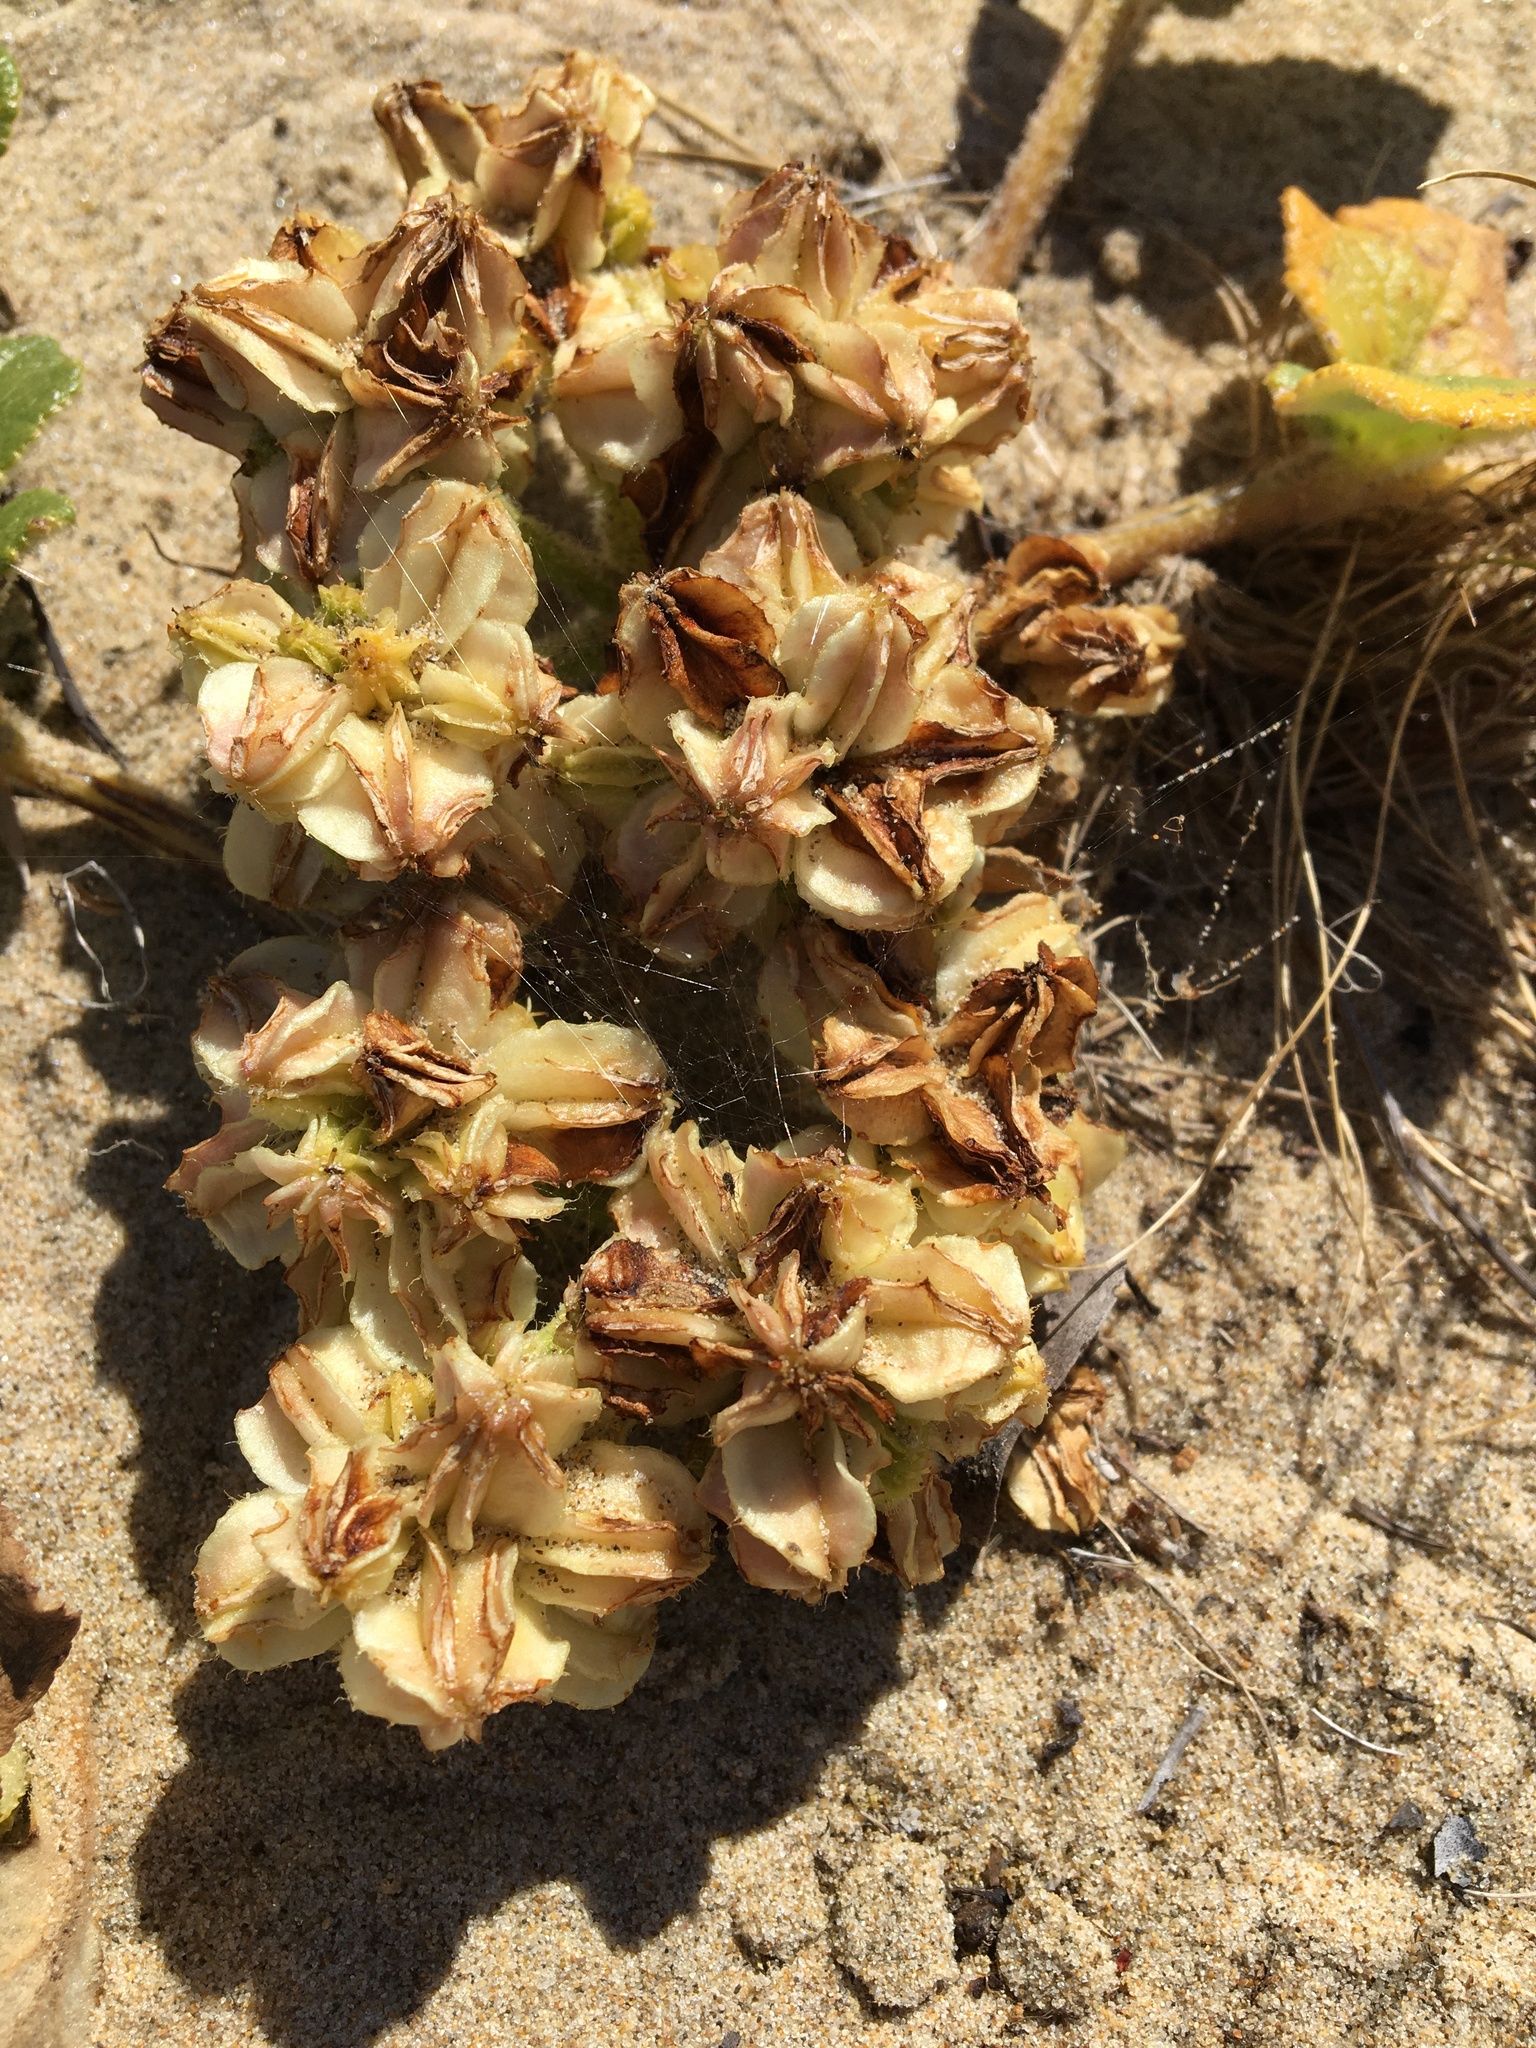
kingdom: Plantae
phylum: Tracheophyta
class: Magnoliopsida
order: Apiales
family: Apiaceae
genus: Angelica
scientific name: Angelica leiocarpa
